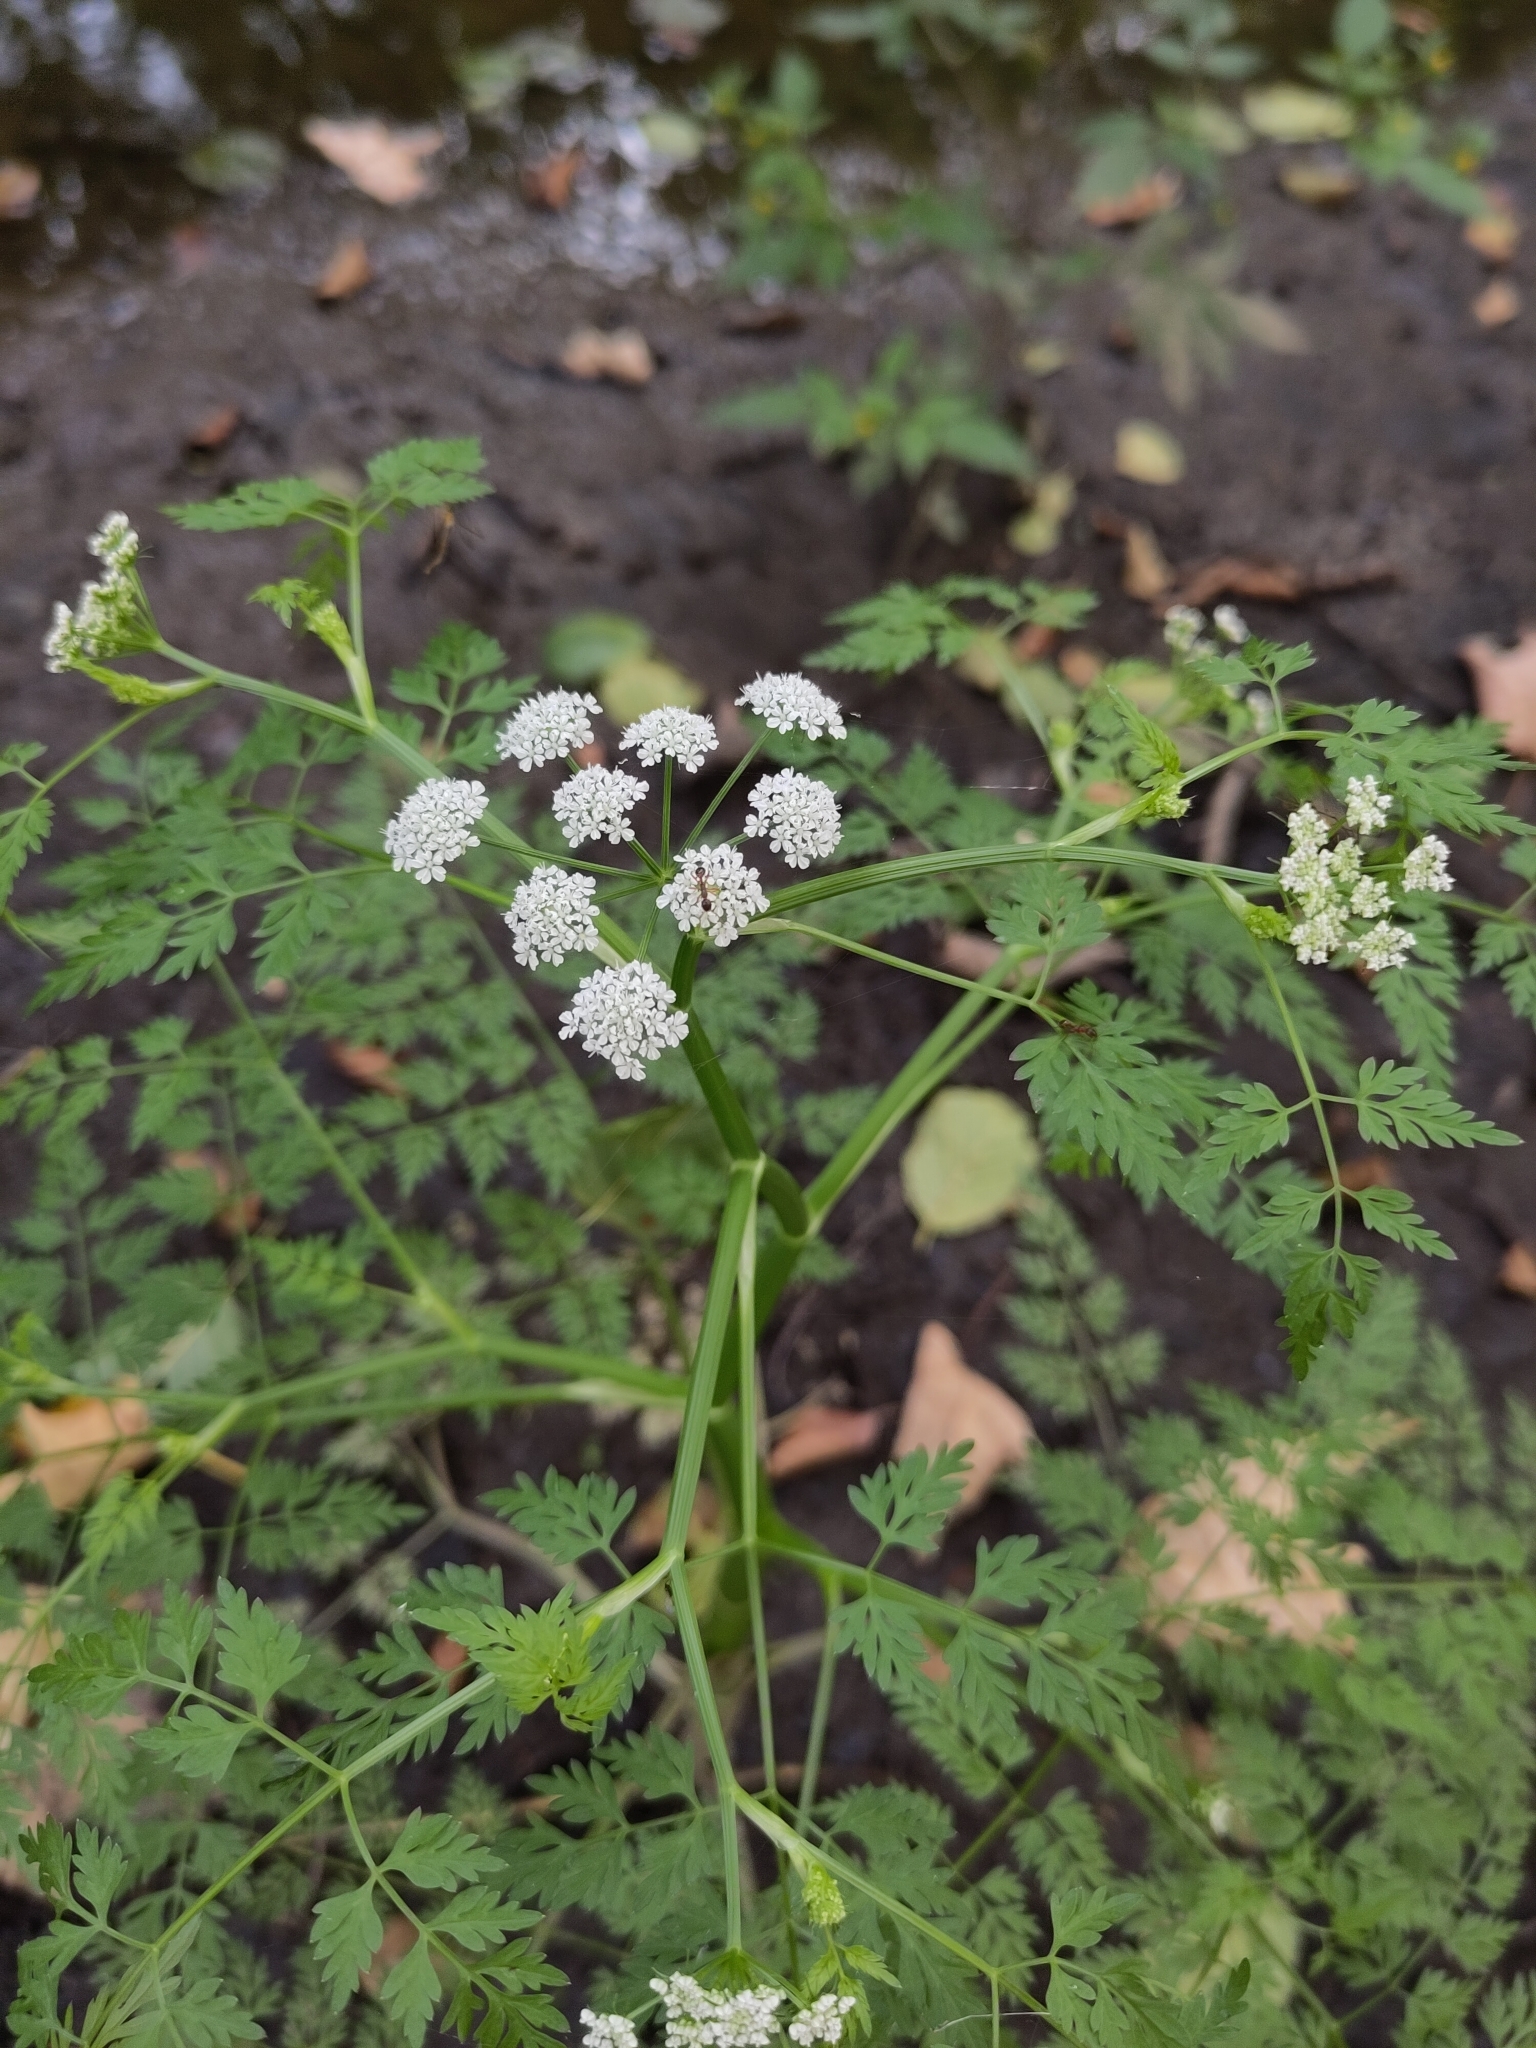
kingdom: Plantae
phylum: Tracheophyta
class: Magnoliopsida
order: Apiales
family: Apiaceae
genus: Oenanthe
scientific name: Oenanthe aquatica
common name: Fine-leaved water-dropwort
